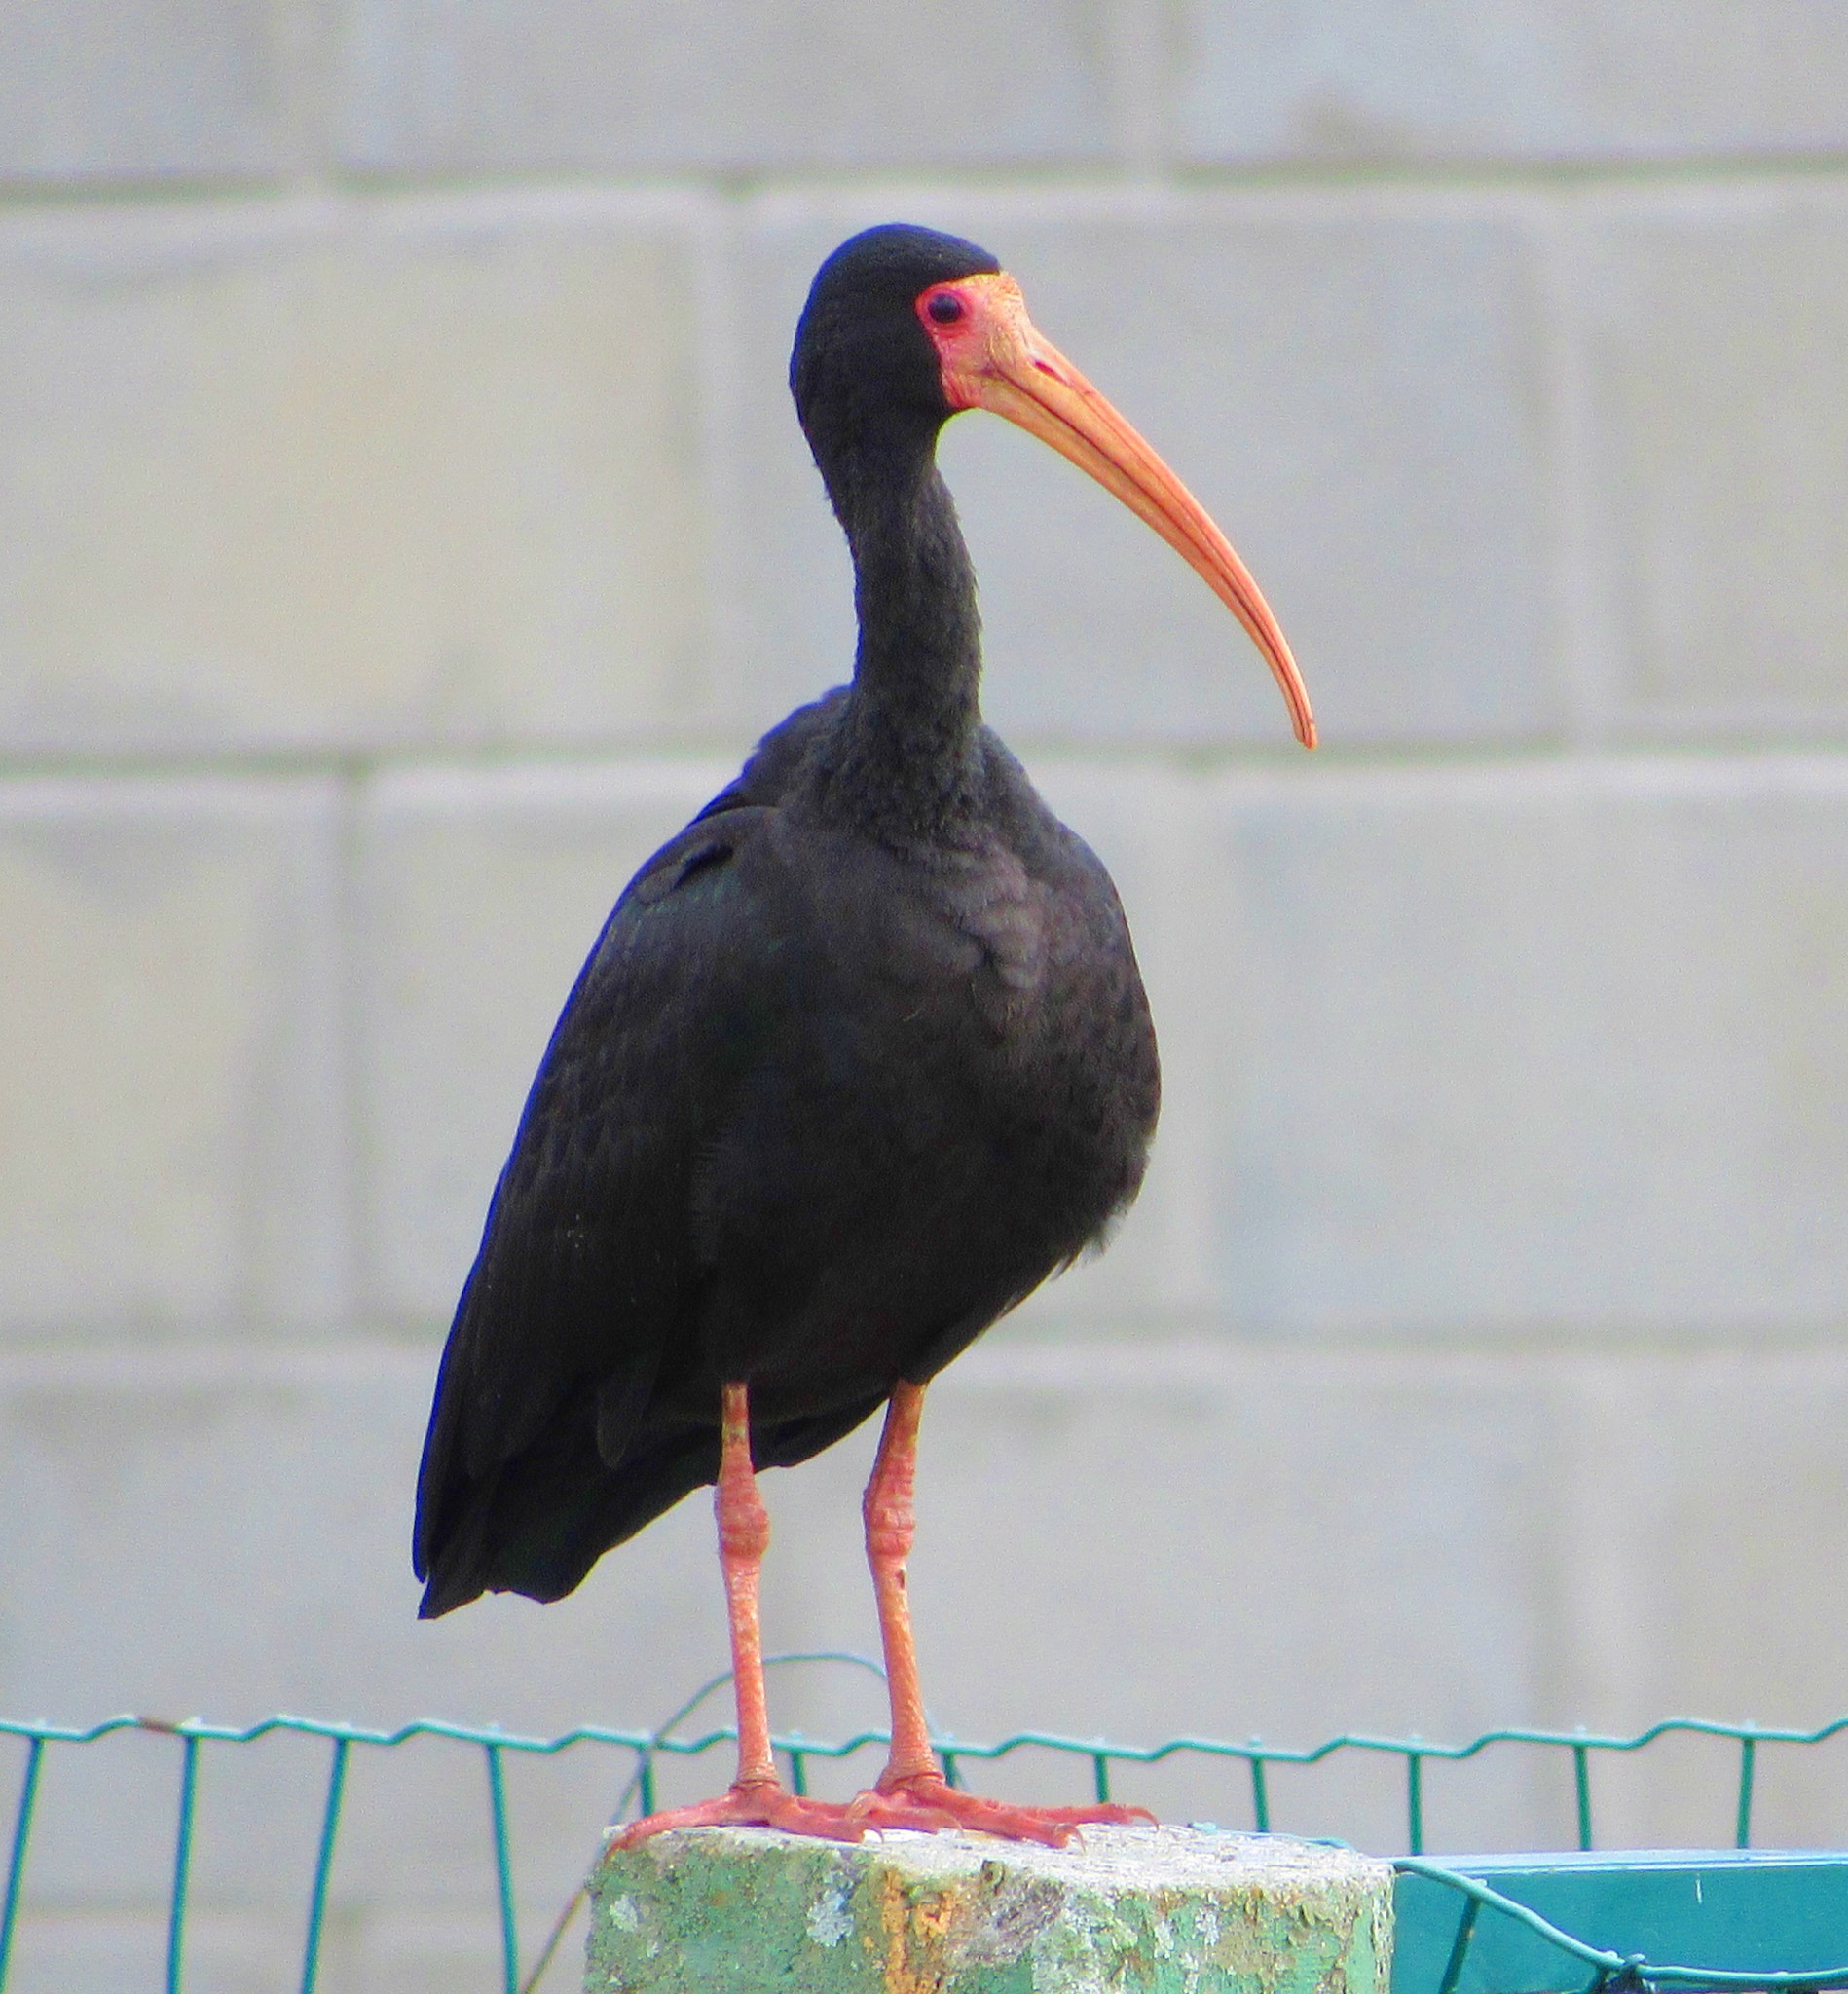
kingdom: Animalia
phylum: Chordata
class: Aves
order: Pelecaniformes
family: Threskiornithidae
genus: Phimosus
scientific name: Phimosus infuscatus
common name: Bare-faced ibis
